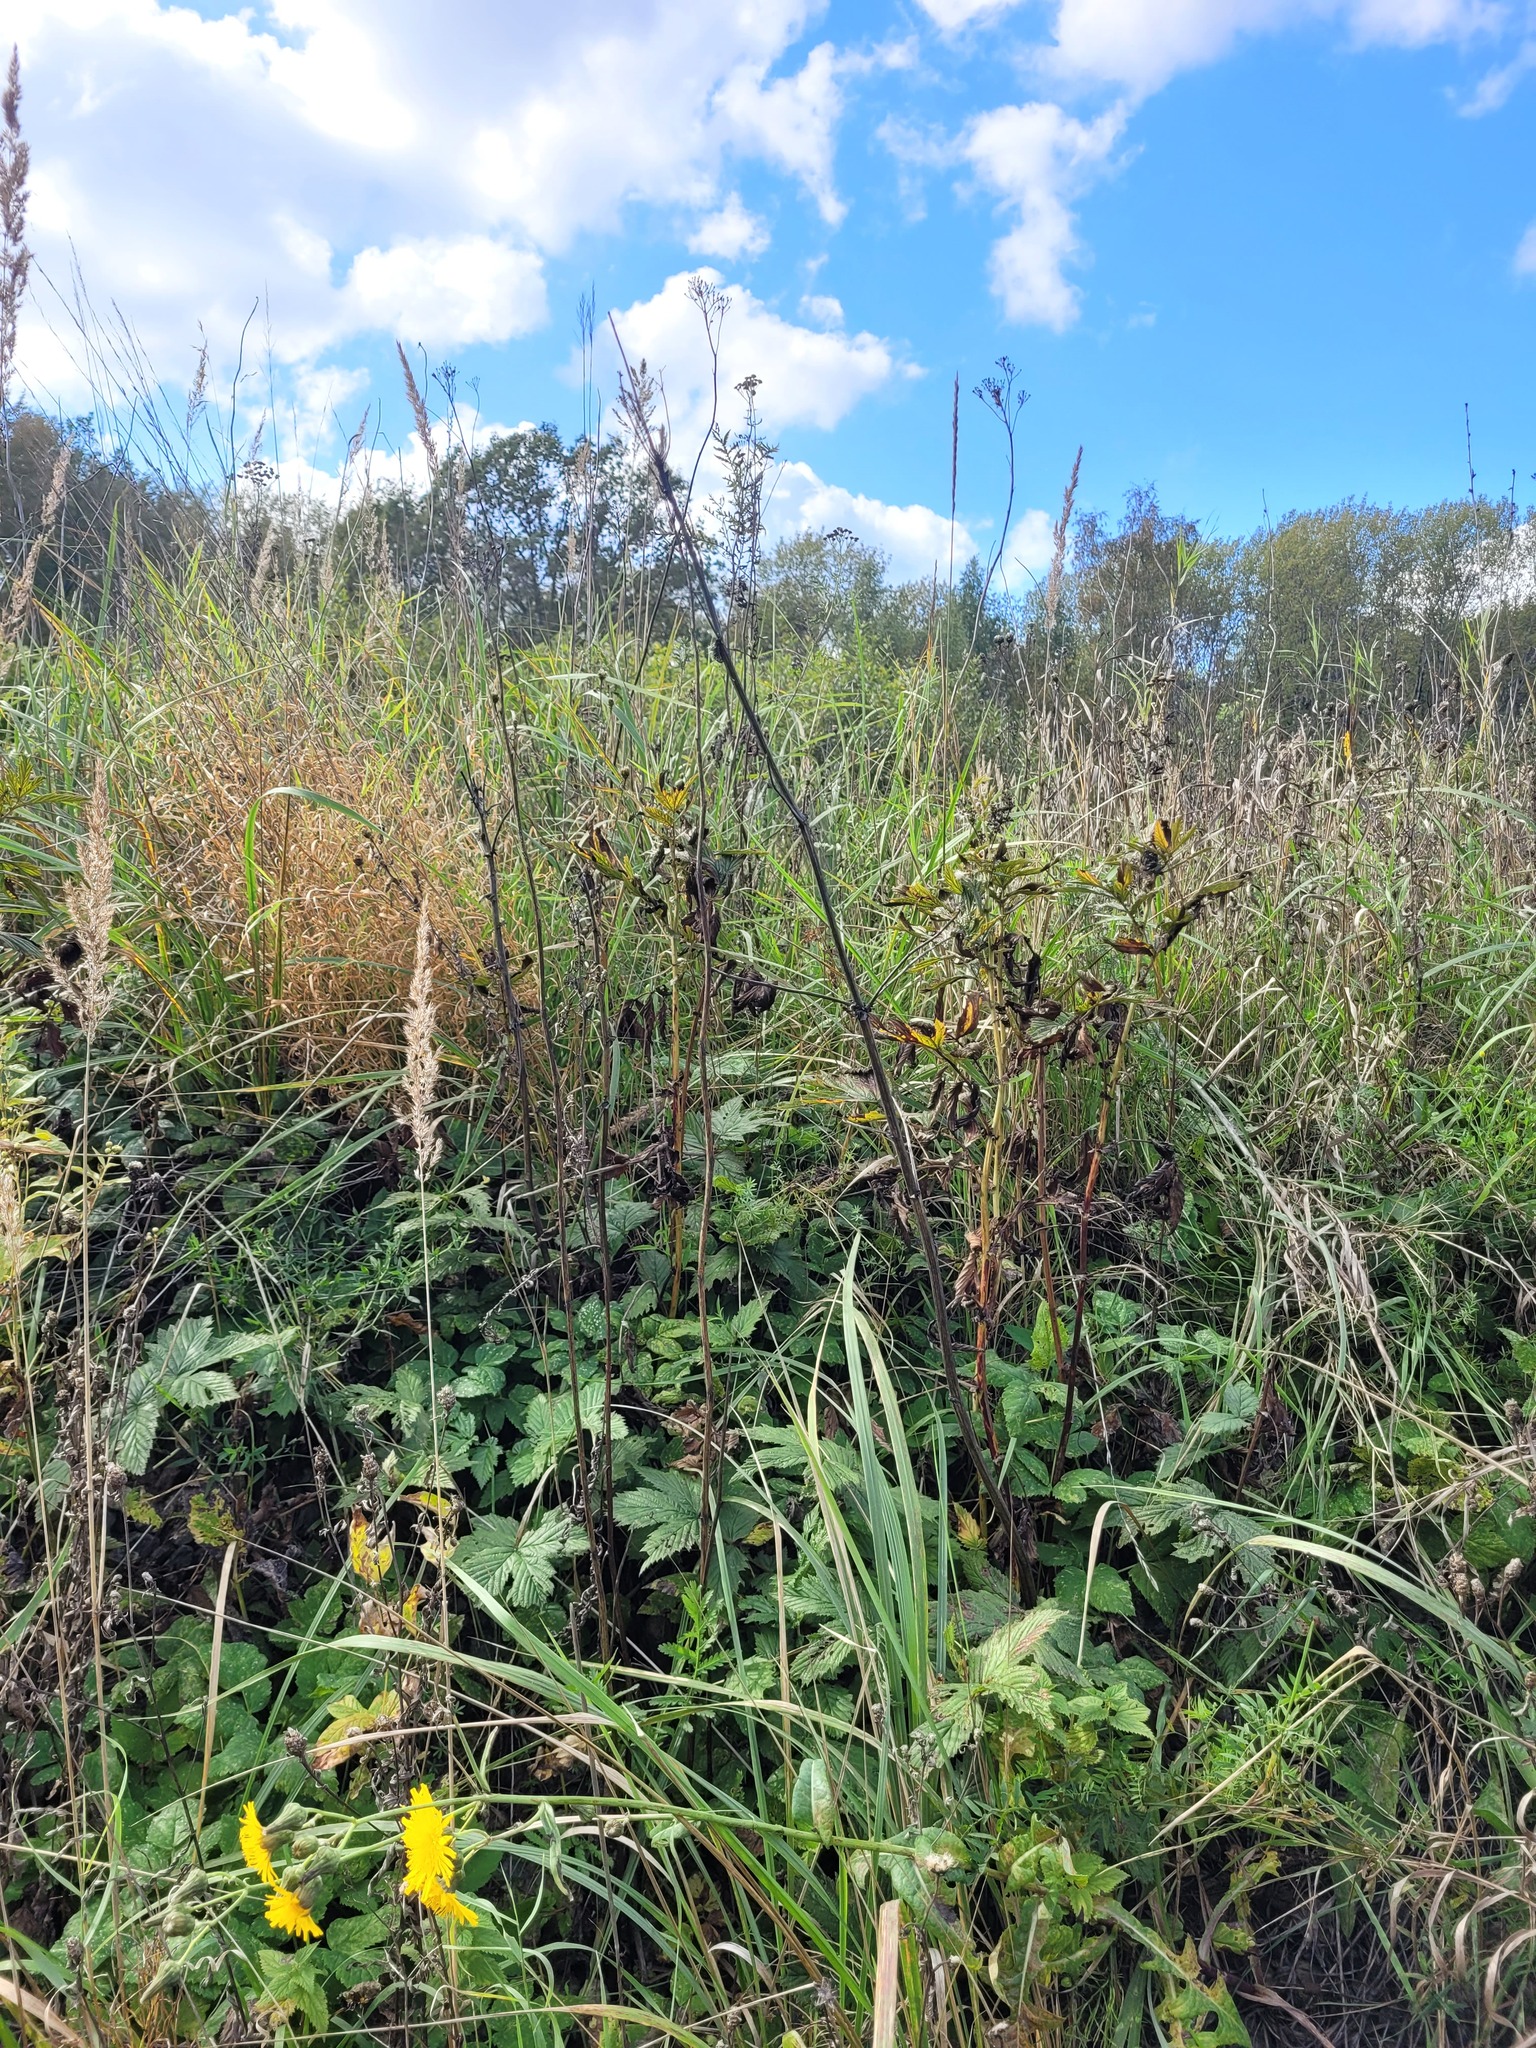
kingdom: Plantae
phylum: Tracheophyta
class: Magnoliopsida
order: Rosales
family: Rosaceae
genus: Filipendula
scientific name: Filipendula ulmaria
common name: Meadowsweet
